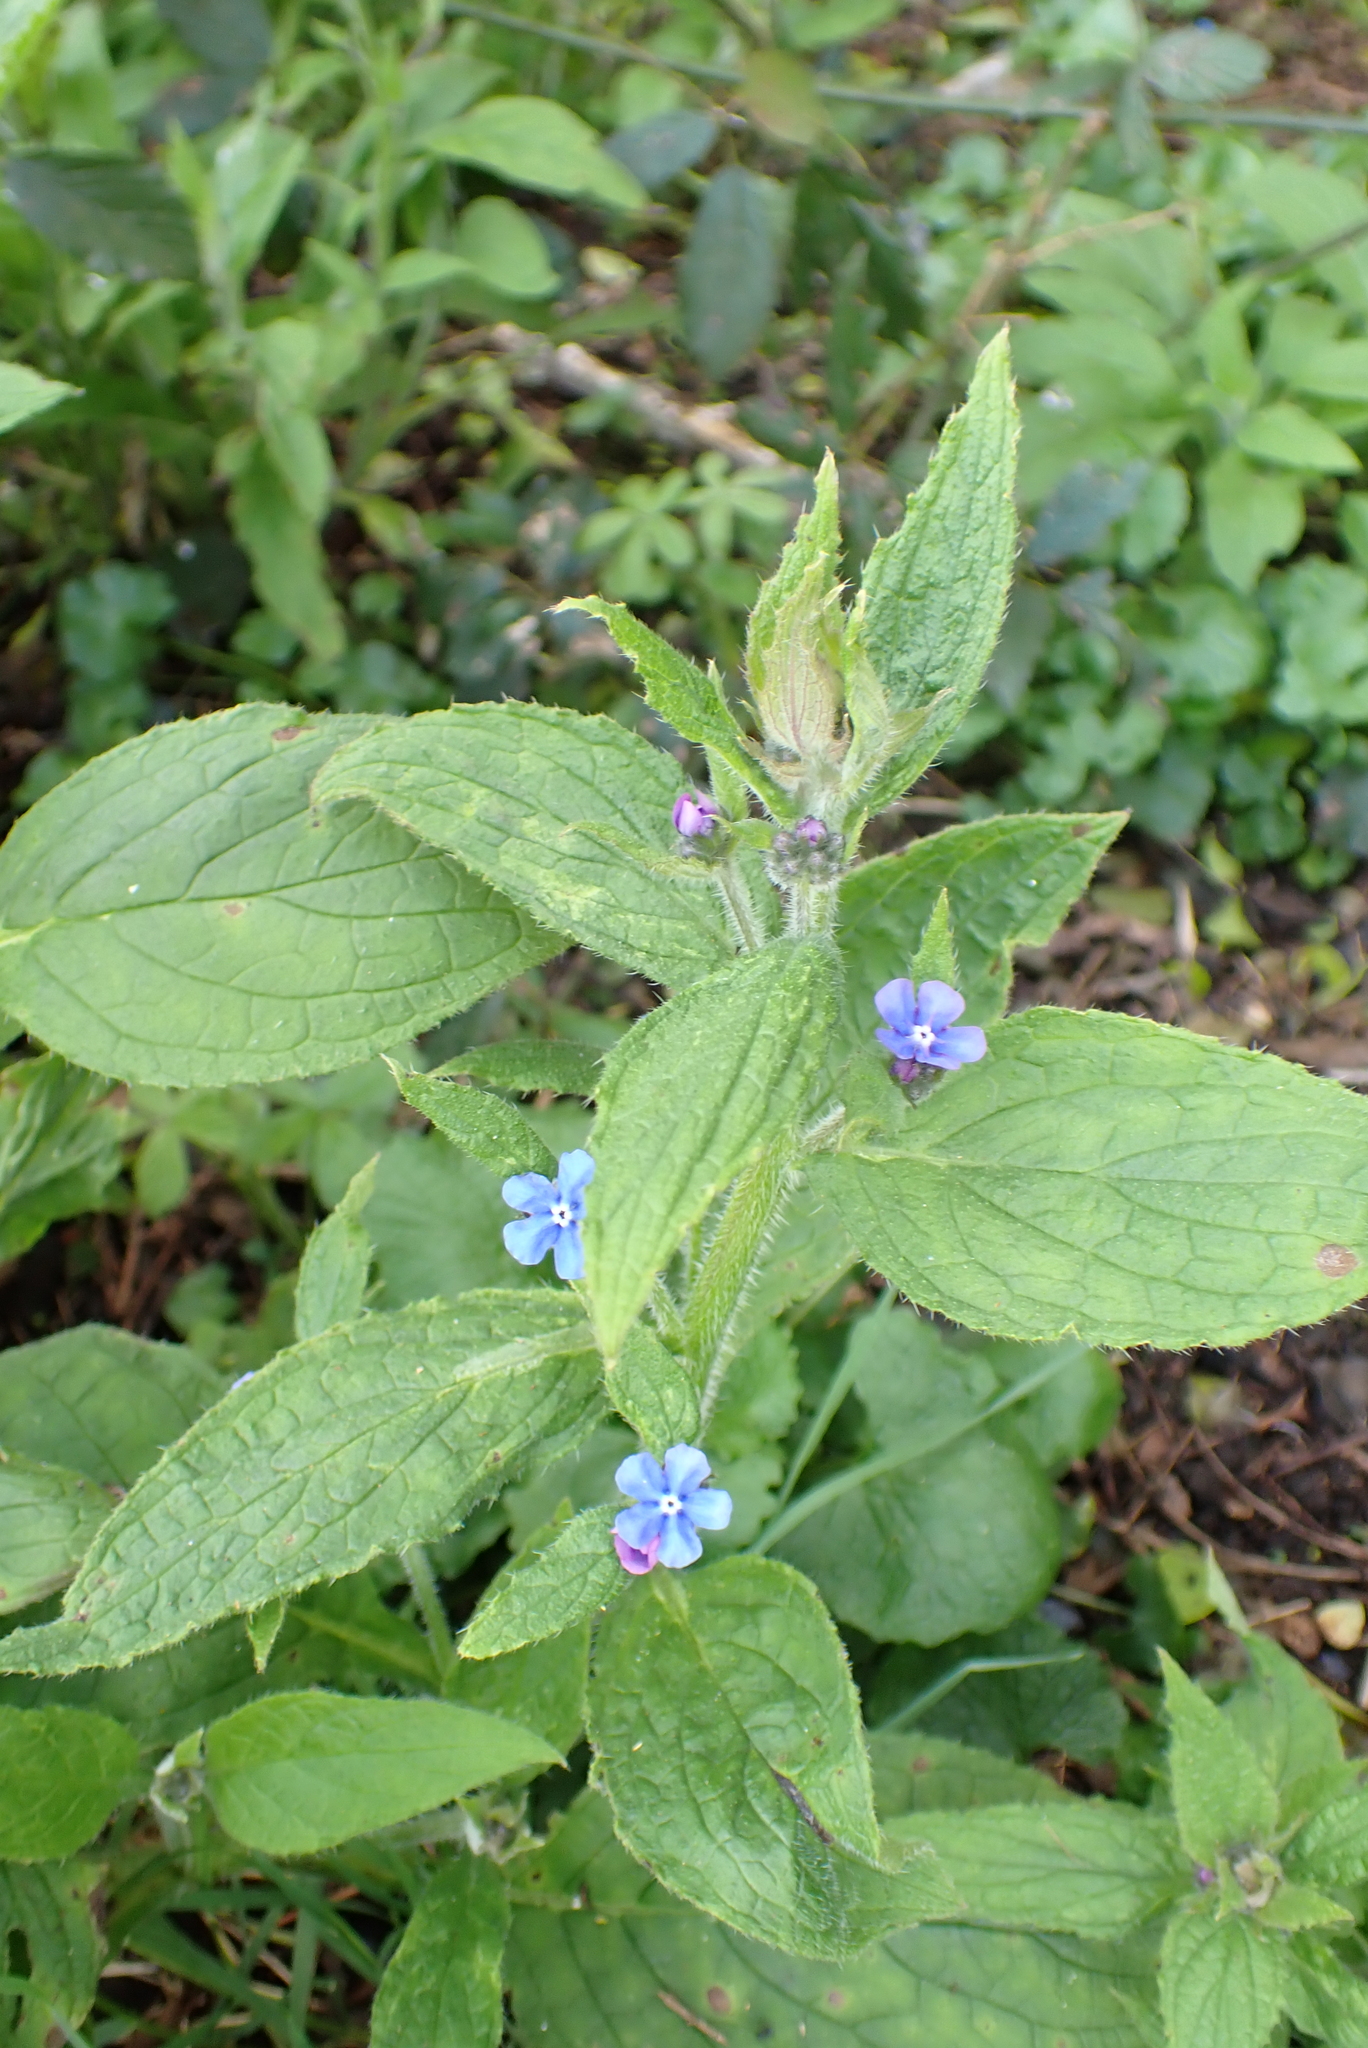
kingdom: Plantae
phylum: Tracheophyta
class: Magnoliopsida
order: Boraginales
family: Boraginaceae
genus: Pentaglottis
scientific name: Pentaglottis sempervirens
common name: Green alkanet
